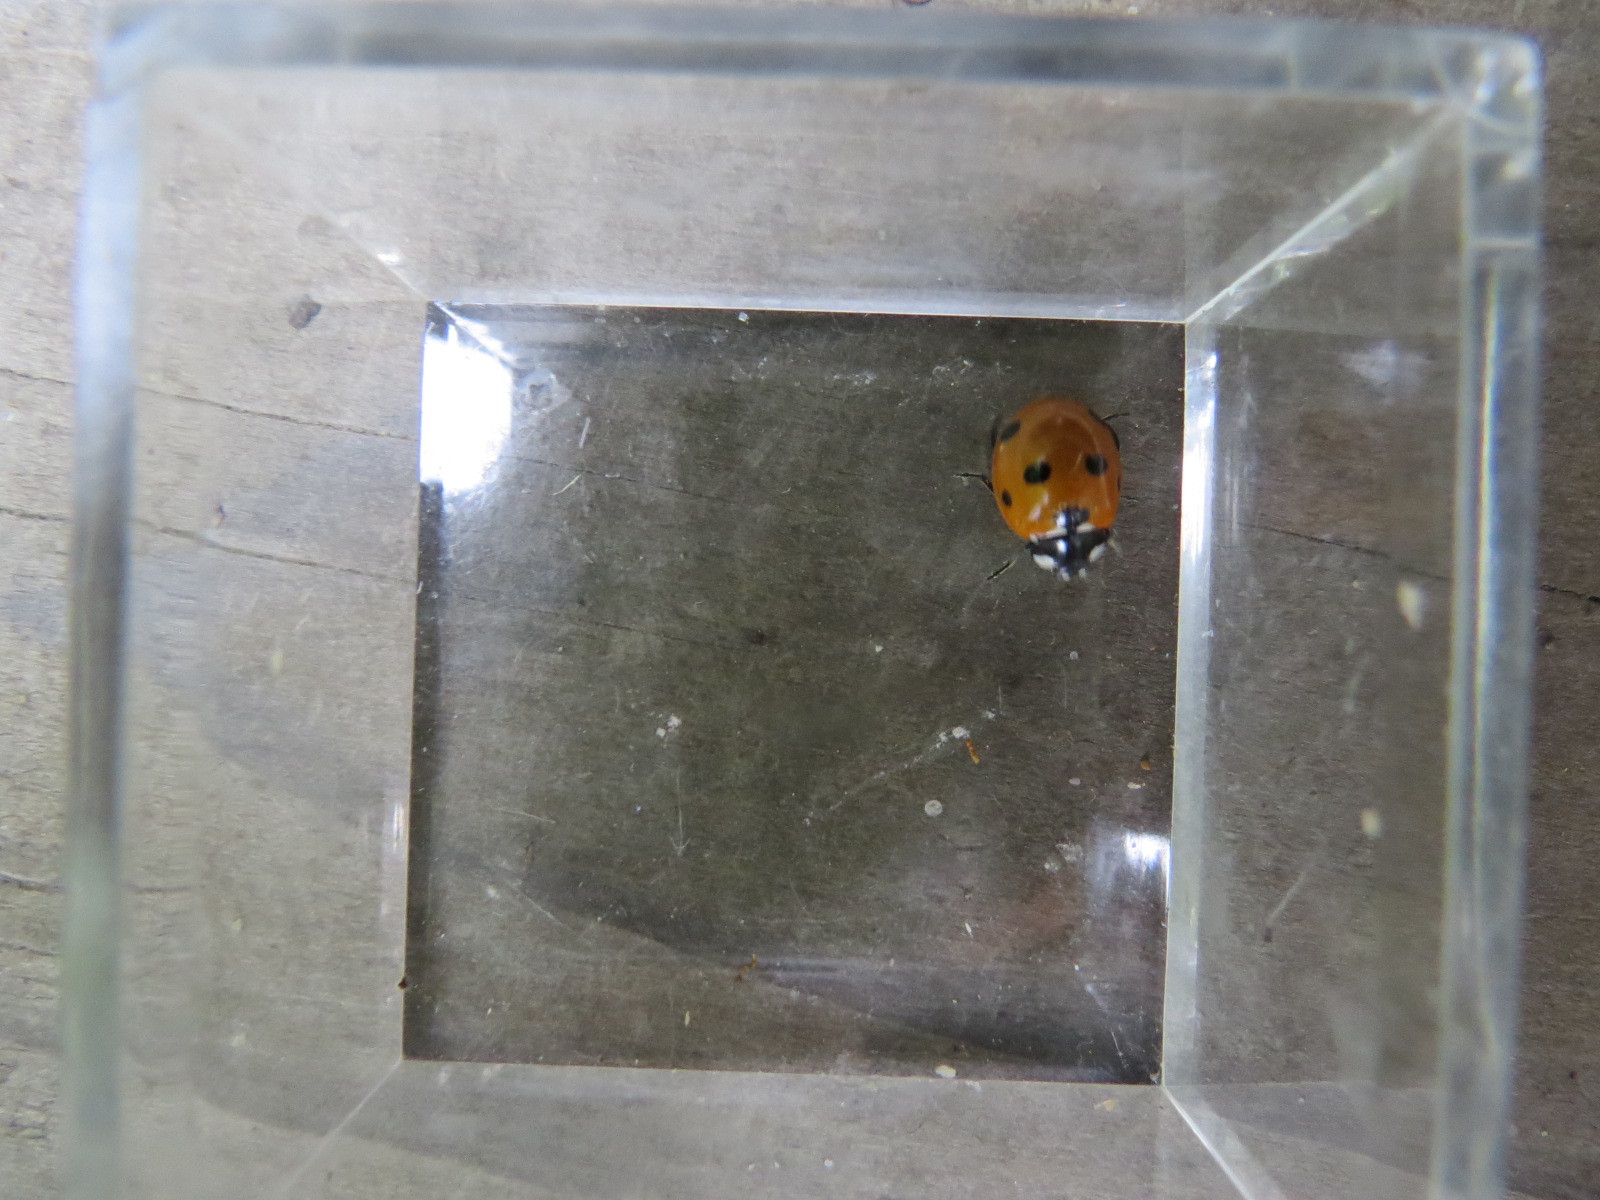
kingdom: Animalia
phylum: Arthropoda
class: Insecta
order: Coleoptera
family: Coccinellidae
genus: Coccinella
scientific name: Coccinella septempunctata
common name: Sevenspotted lady beetle
